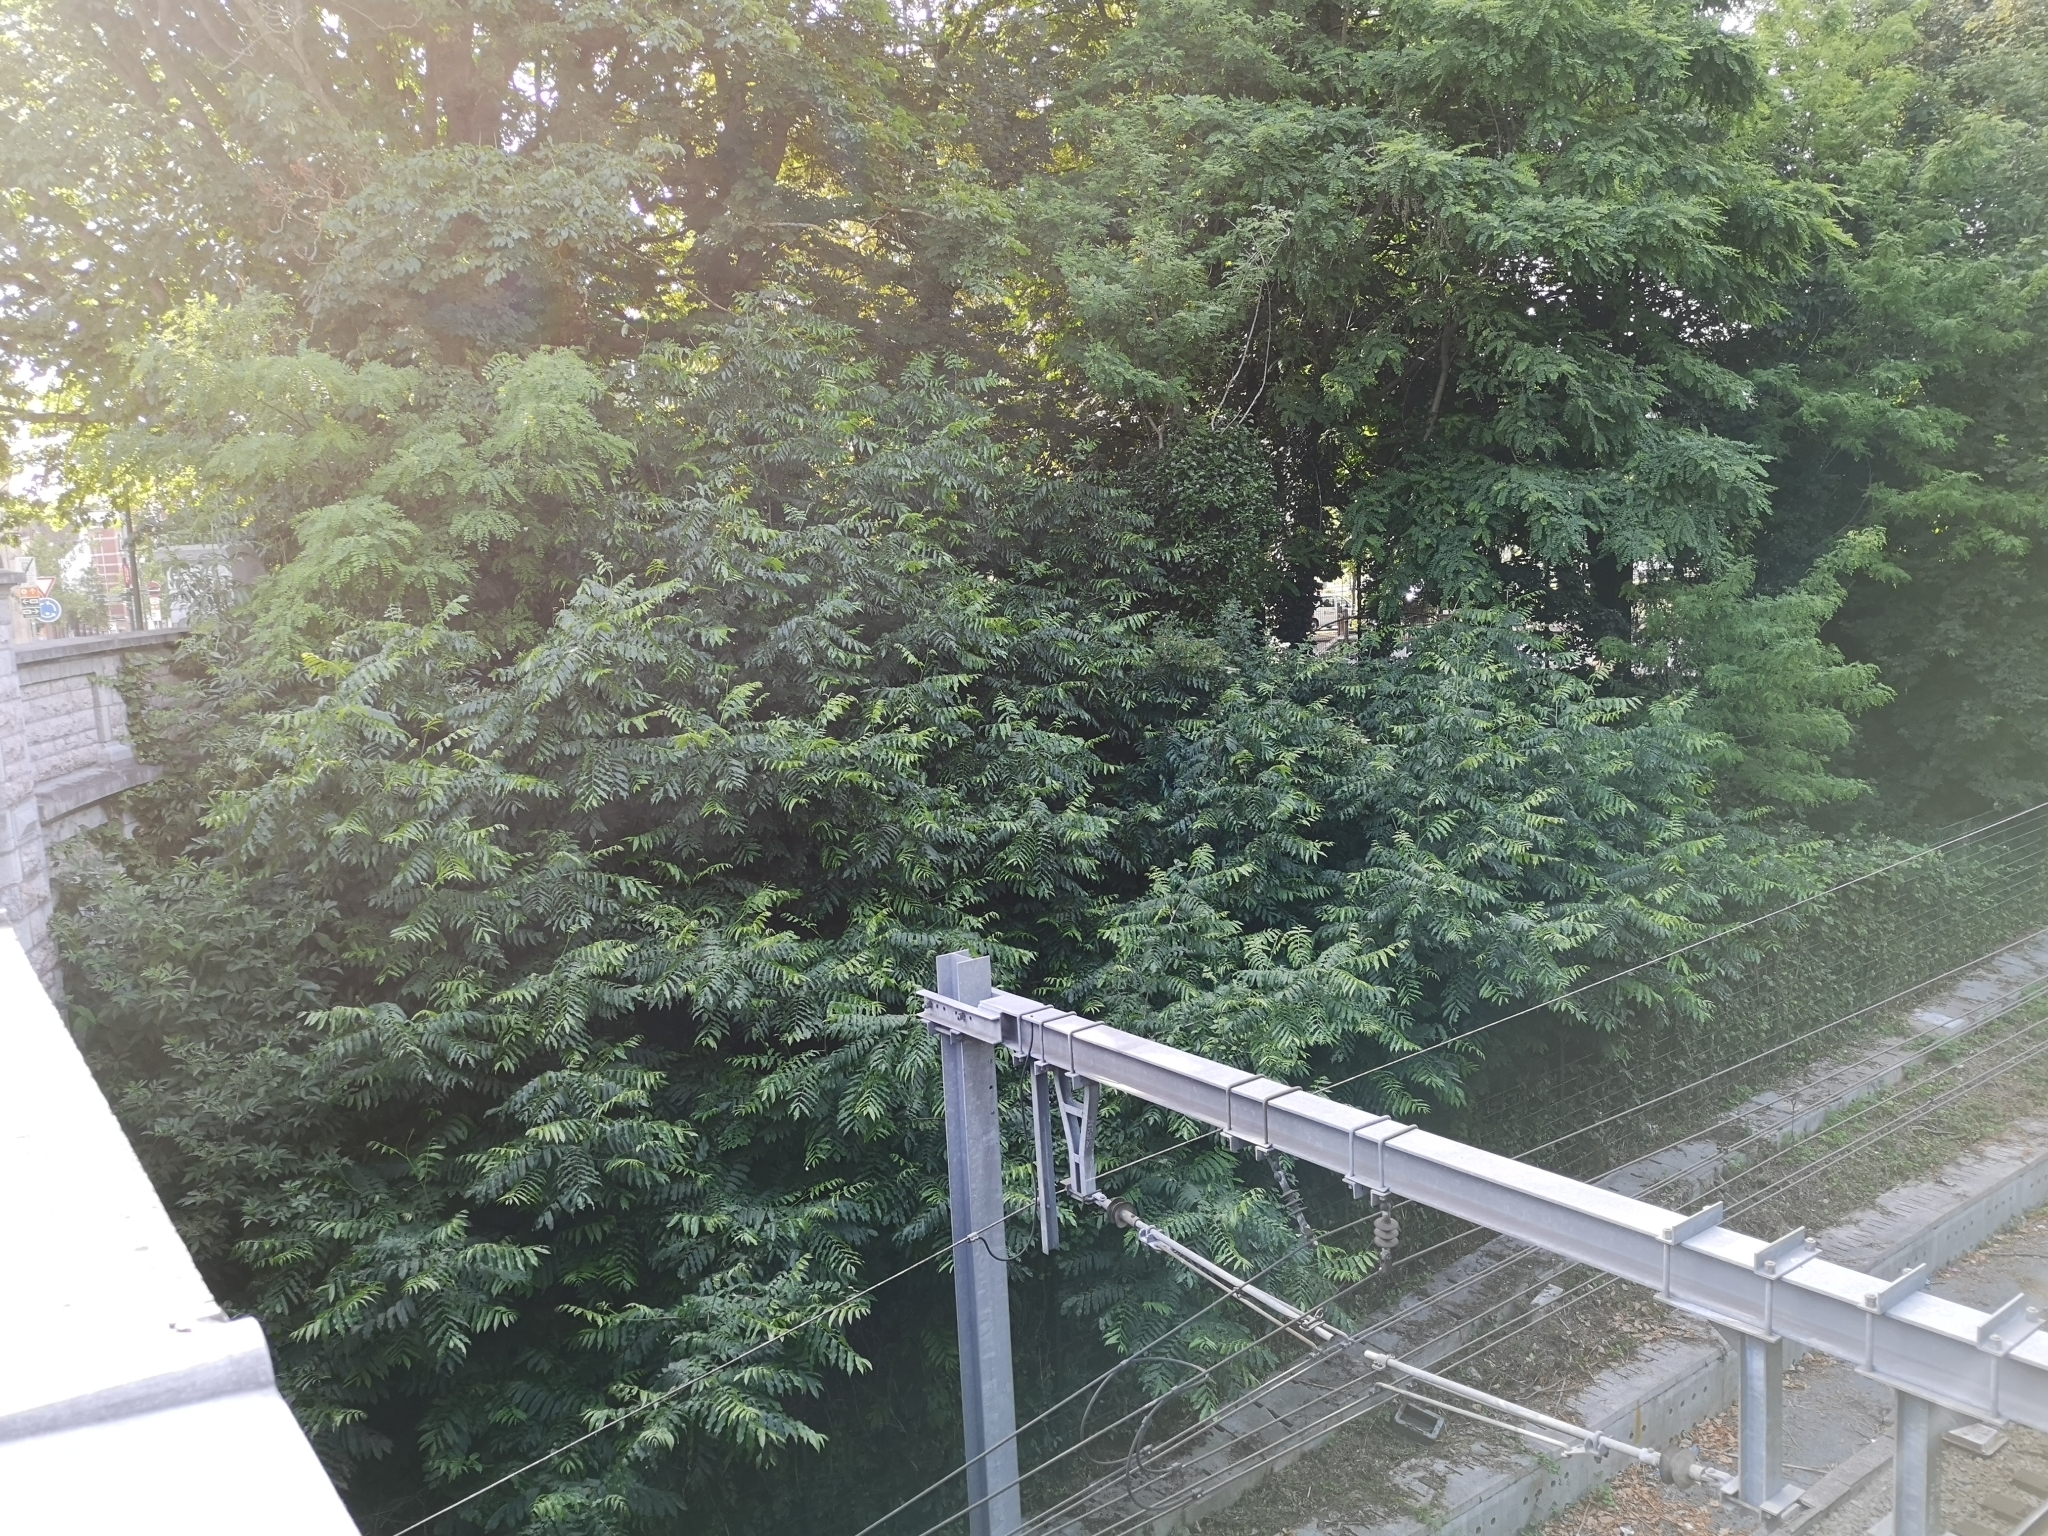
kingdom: Plantae
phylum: Tracheophyta
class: Magnoliopsida
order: Fagales
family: Juglandaceae
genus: Pterocarya
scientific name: Pterocarya fraxinifolia
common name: Caucasian wingnut
